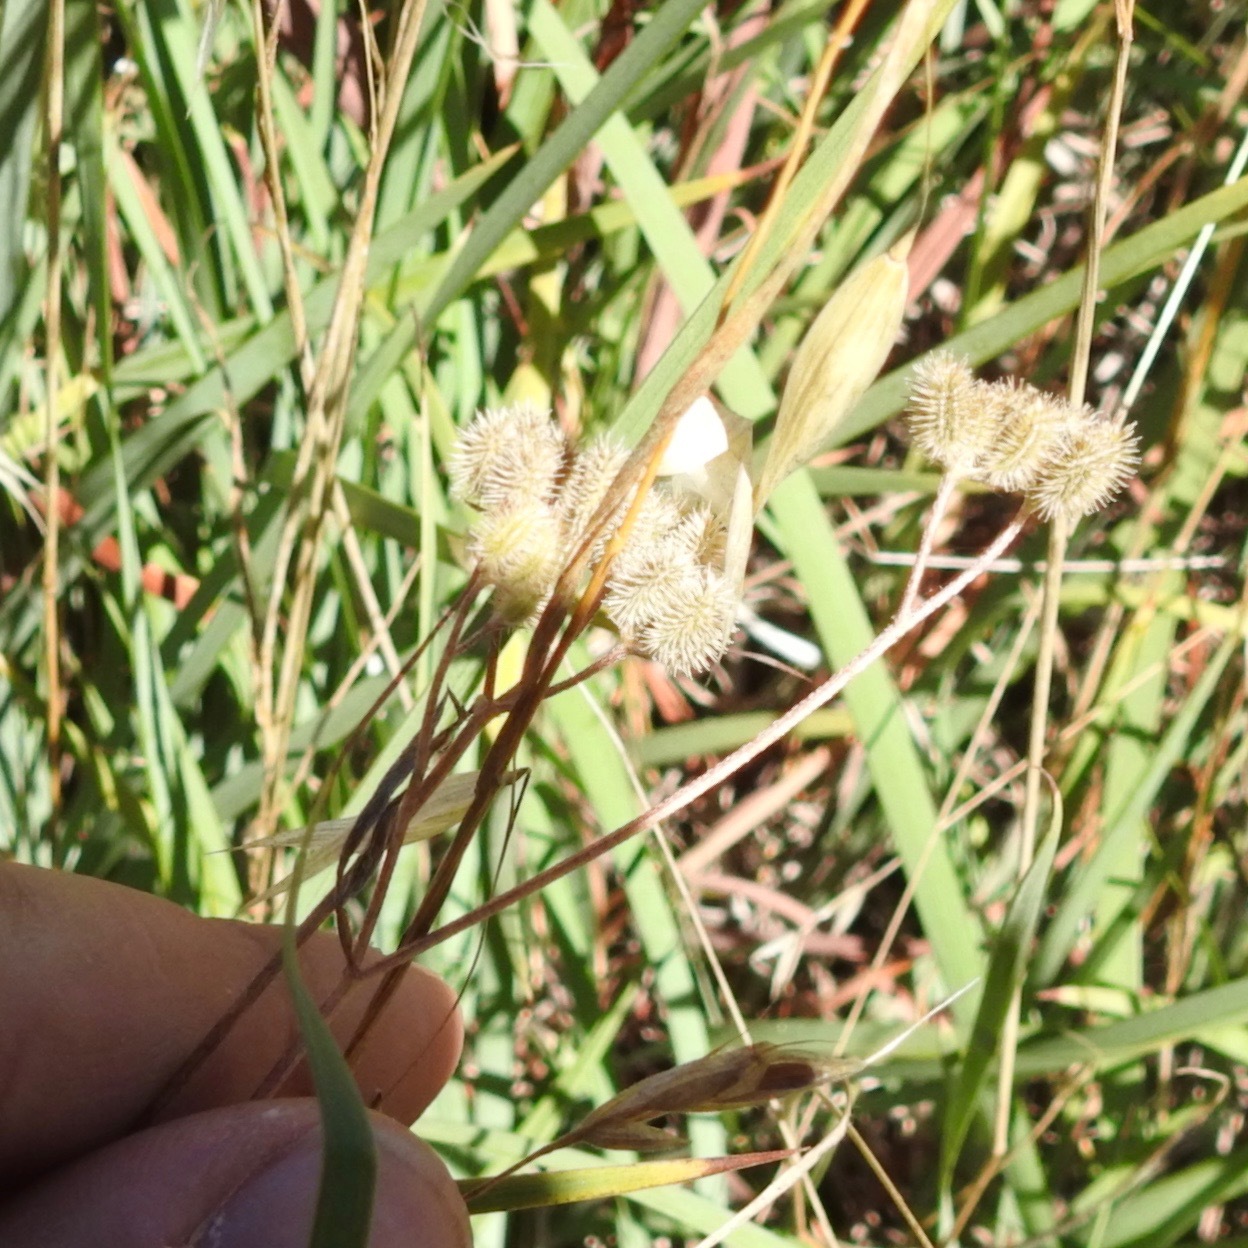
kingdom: Plantae
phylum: Tracheophyta
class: Magnoliopsida
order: Apiales
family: Apiaceae
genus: Torilis
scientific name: Torilis arvensis
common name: Spreading hedge-parsley
